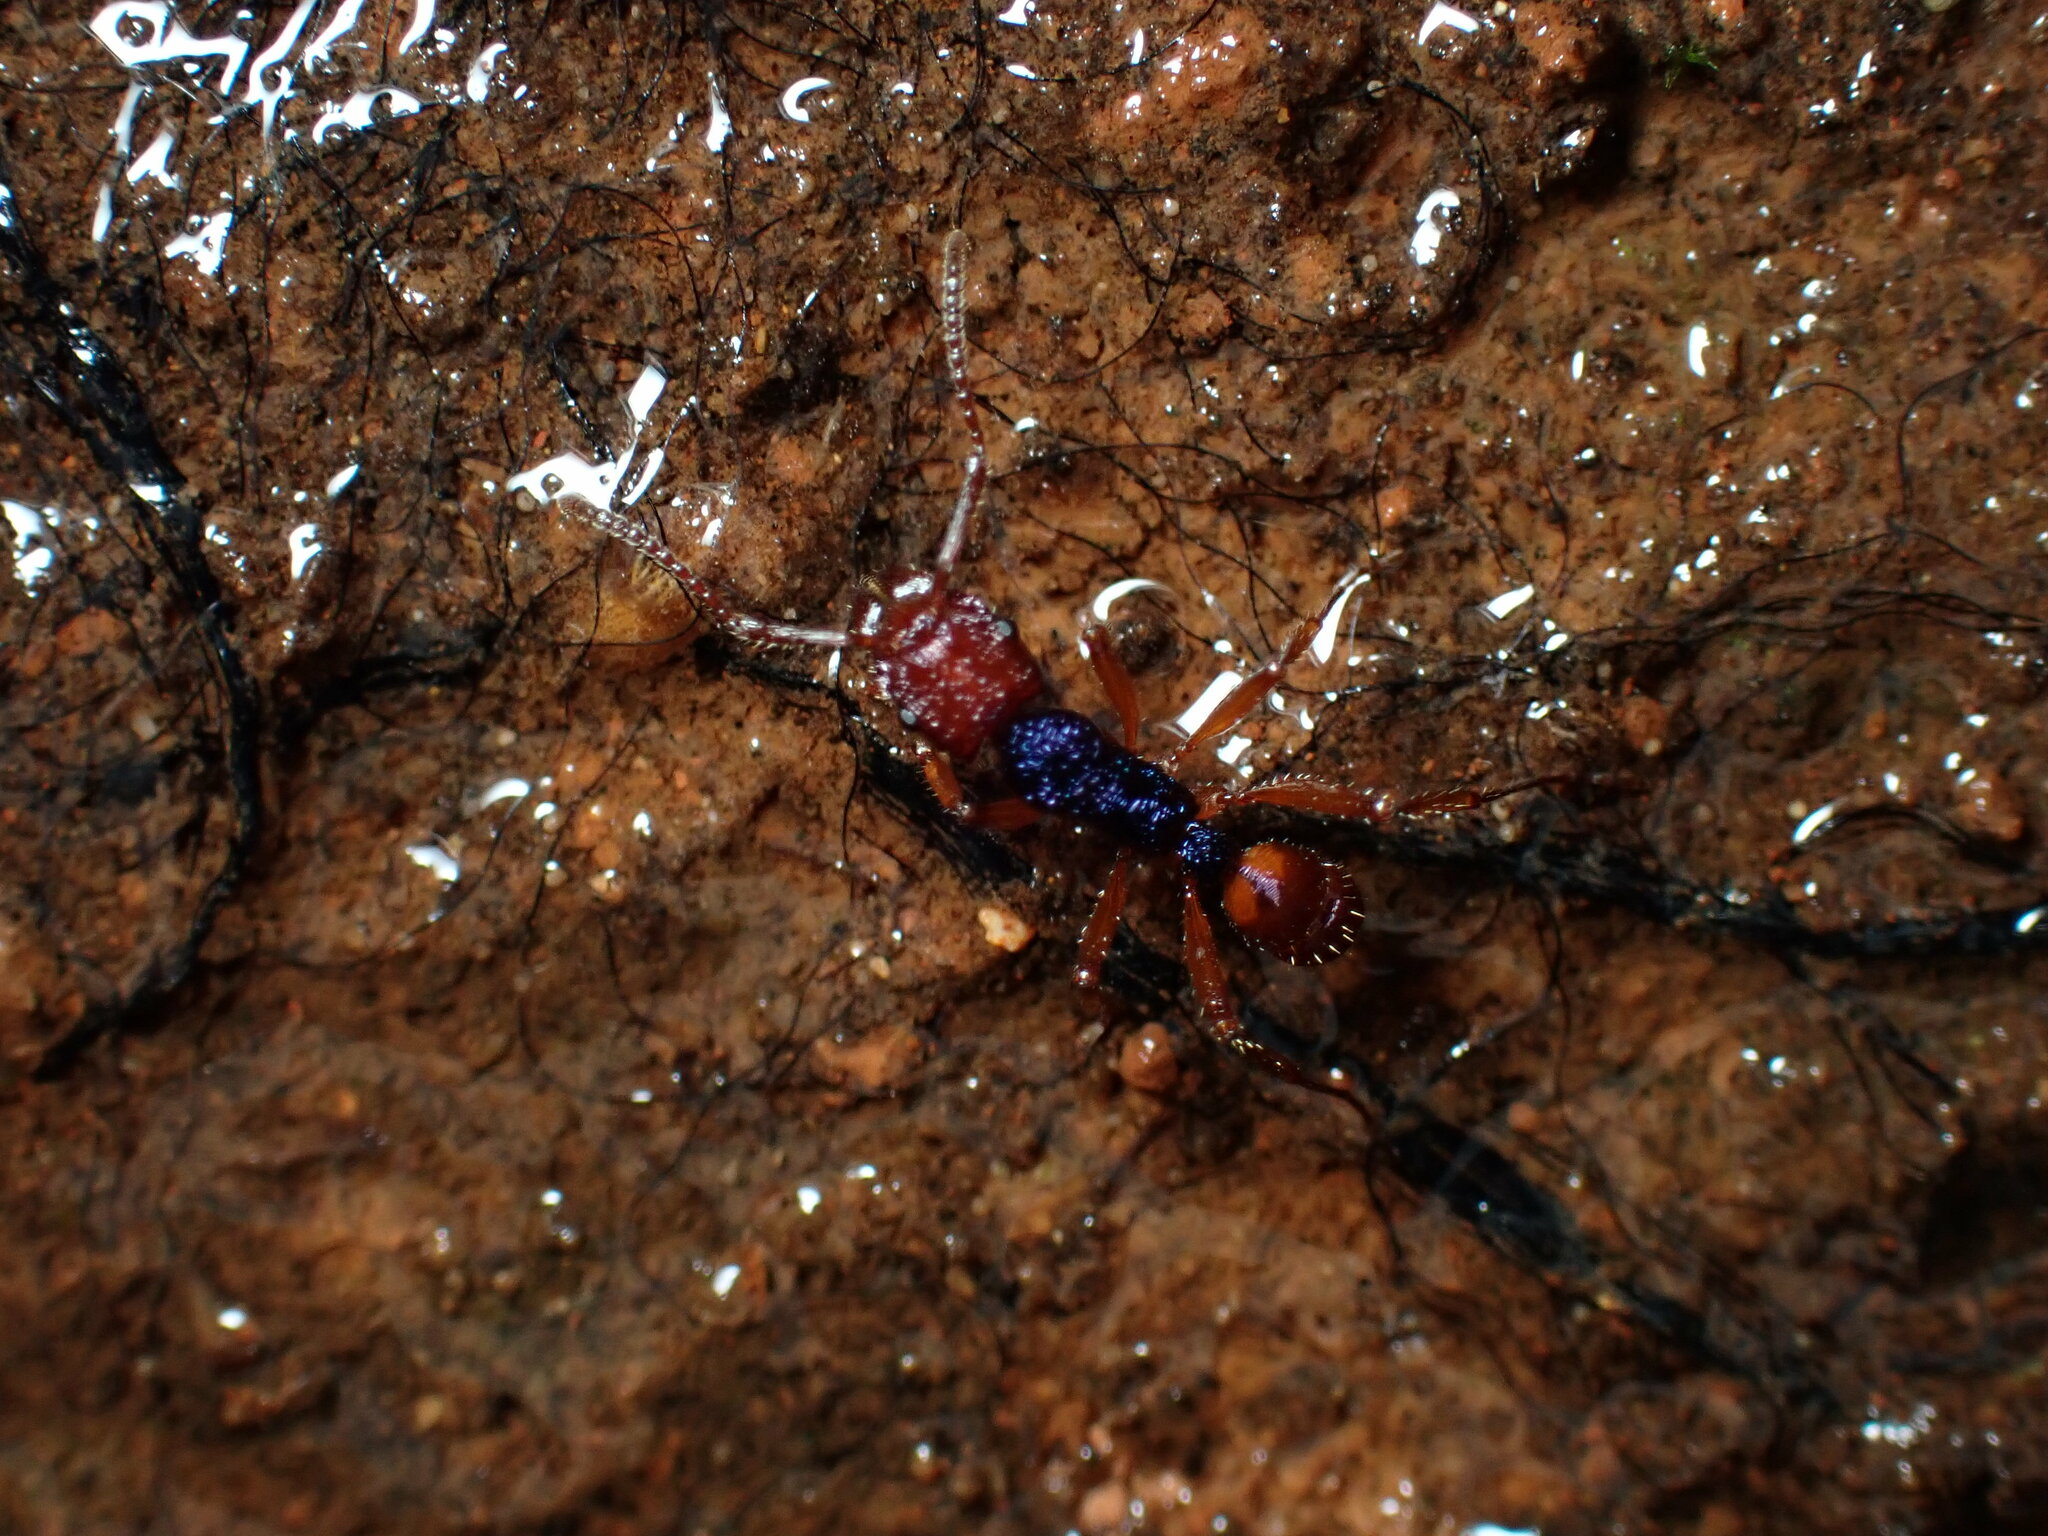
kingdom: Animalia
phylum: Arthropoda
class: Insecta
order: Hymenoptera
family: Formicidae
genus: Rhytidoponera
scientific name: Rhytidoponera croesus
